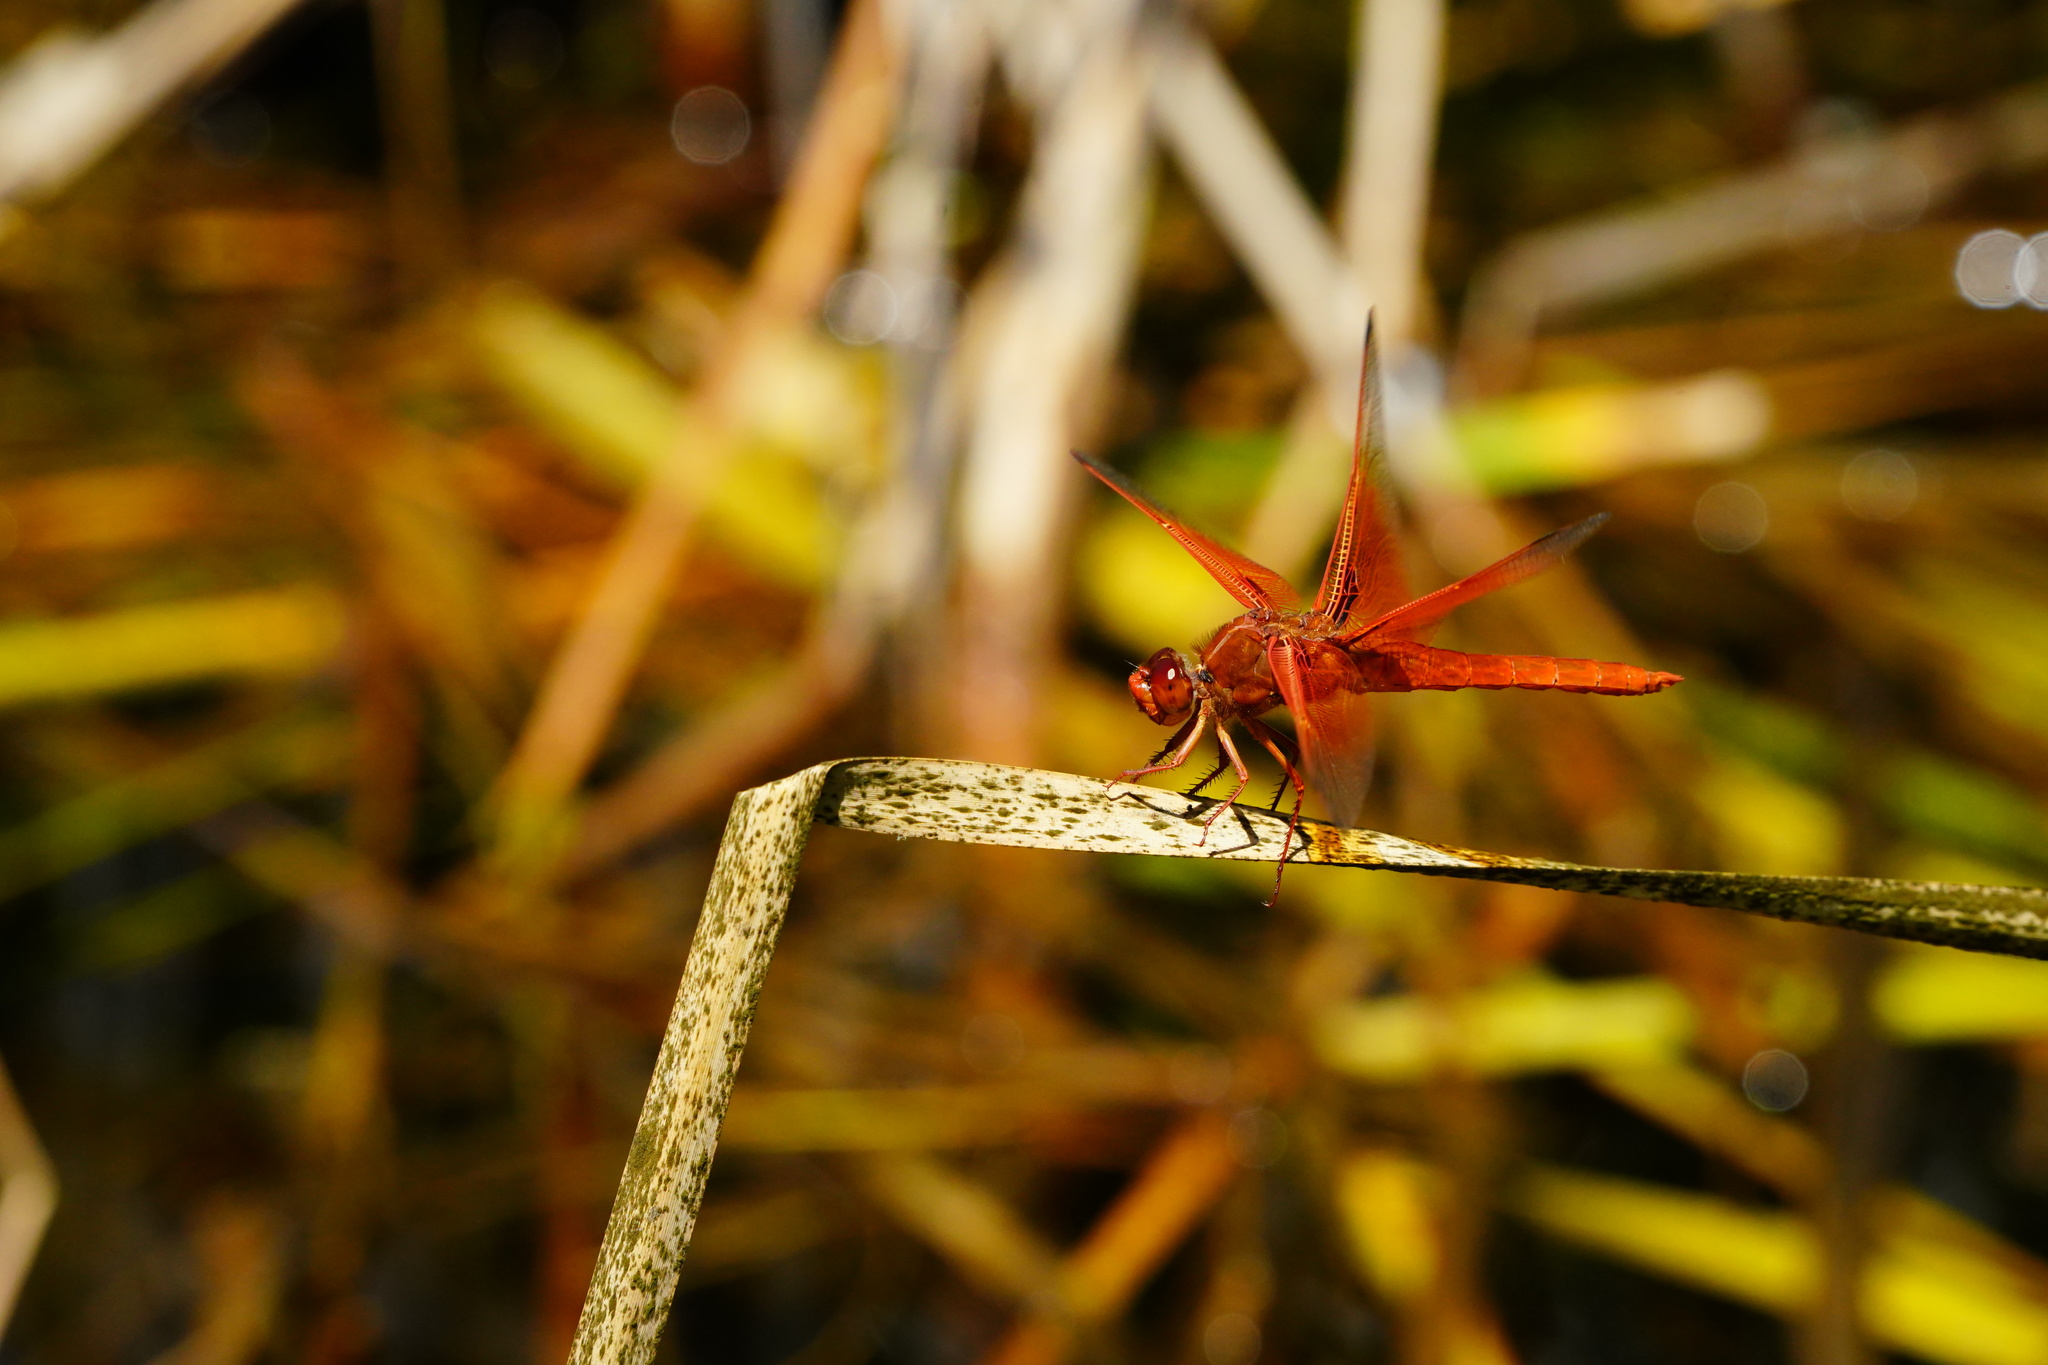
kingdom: Animalia
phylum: Arthropoda
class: Insecta
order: Odonata
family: Libellulidae
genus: Libellula
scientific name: Libellula saturata
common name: Flame skimmer
